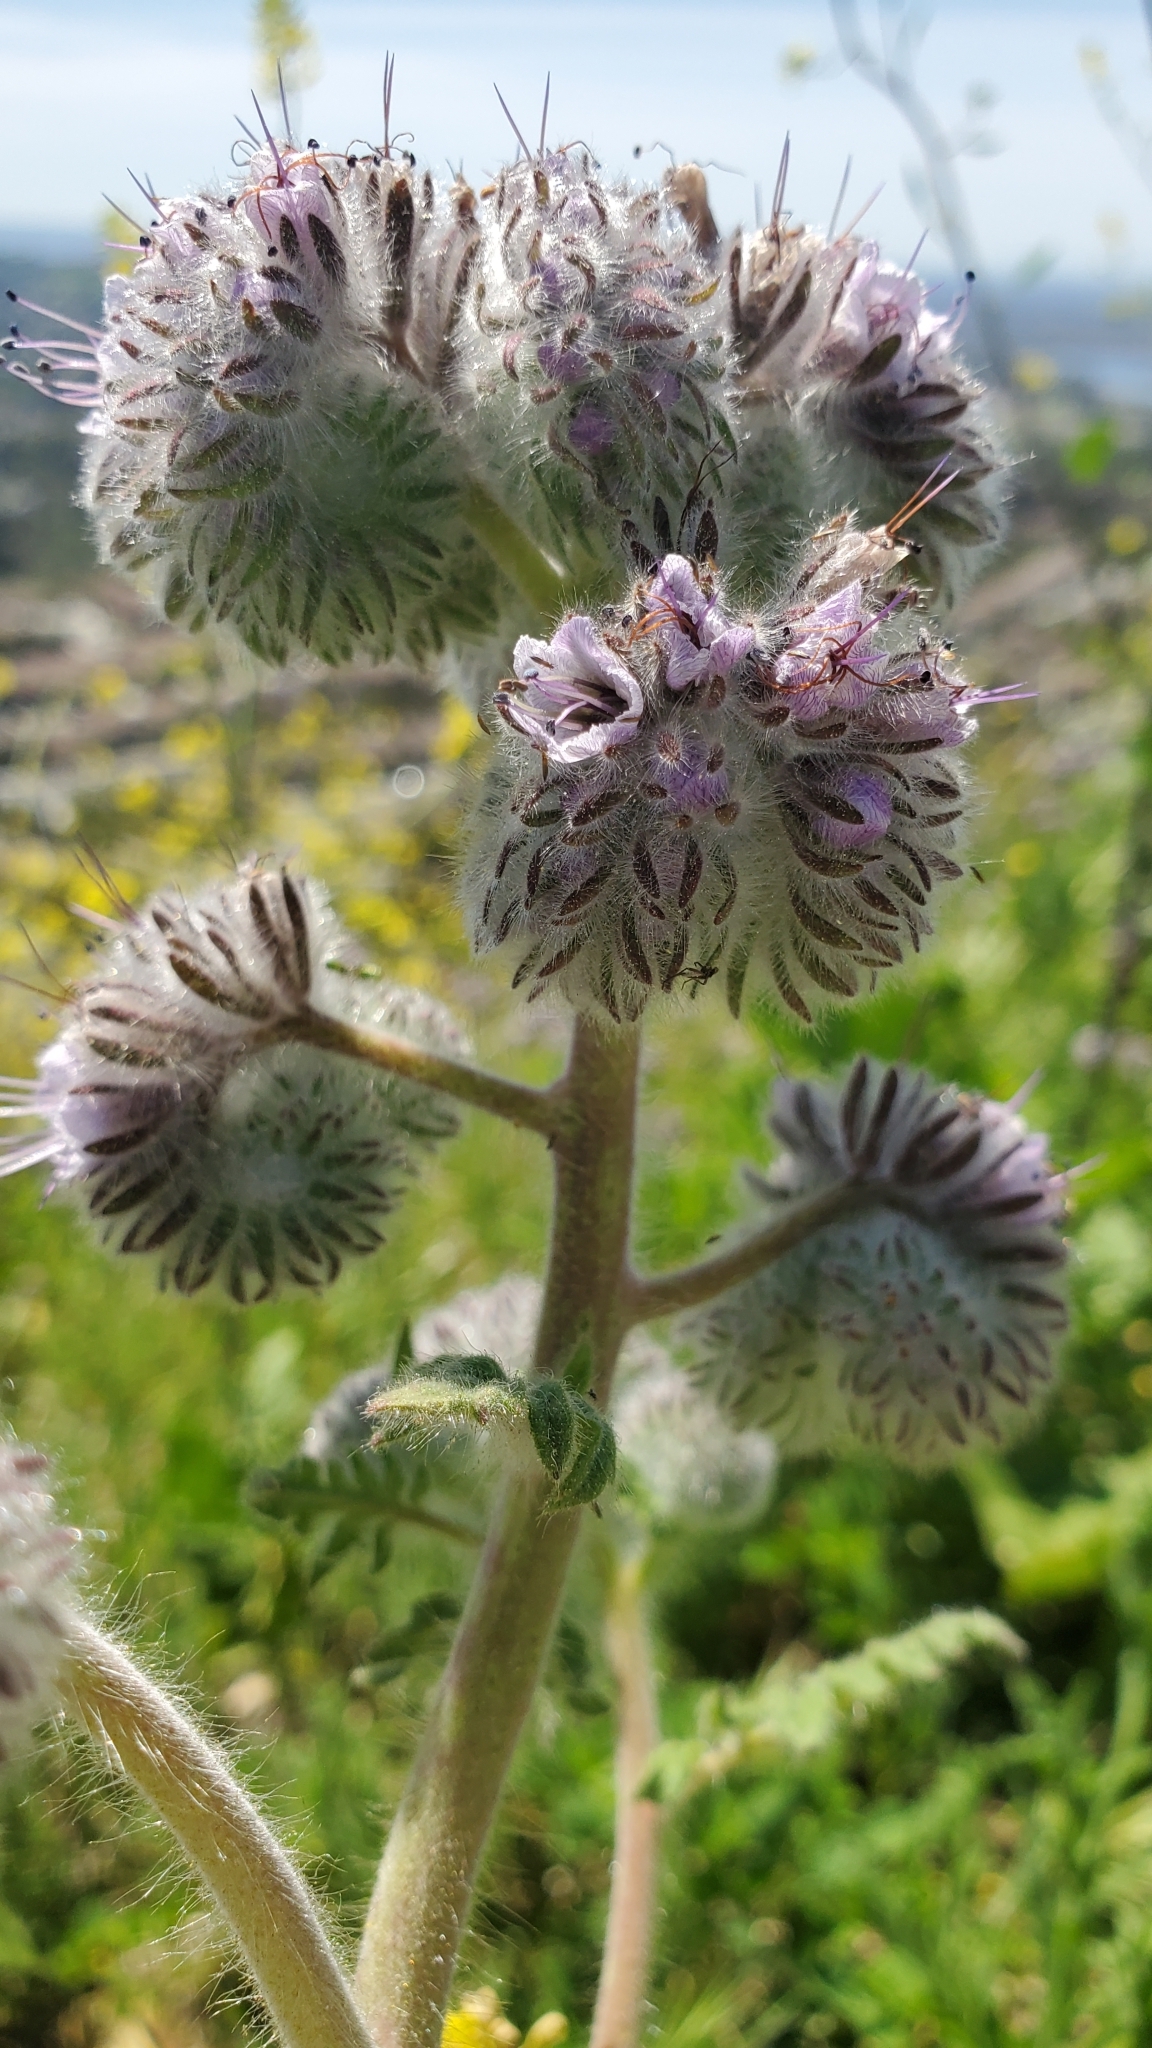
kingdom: Plantae
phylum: Tracheophyta
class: Magnoliopsida
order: Boraginales
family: Hydrophyllaceae
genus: Phacelia
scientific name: Phacelia hubbyi
